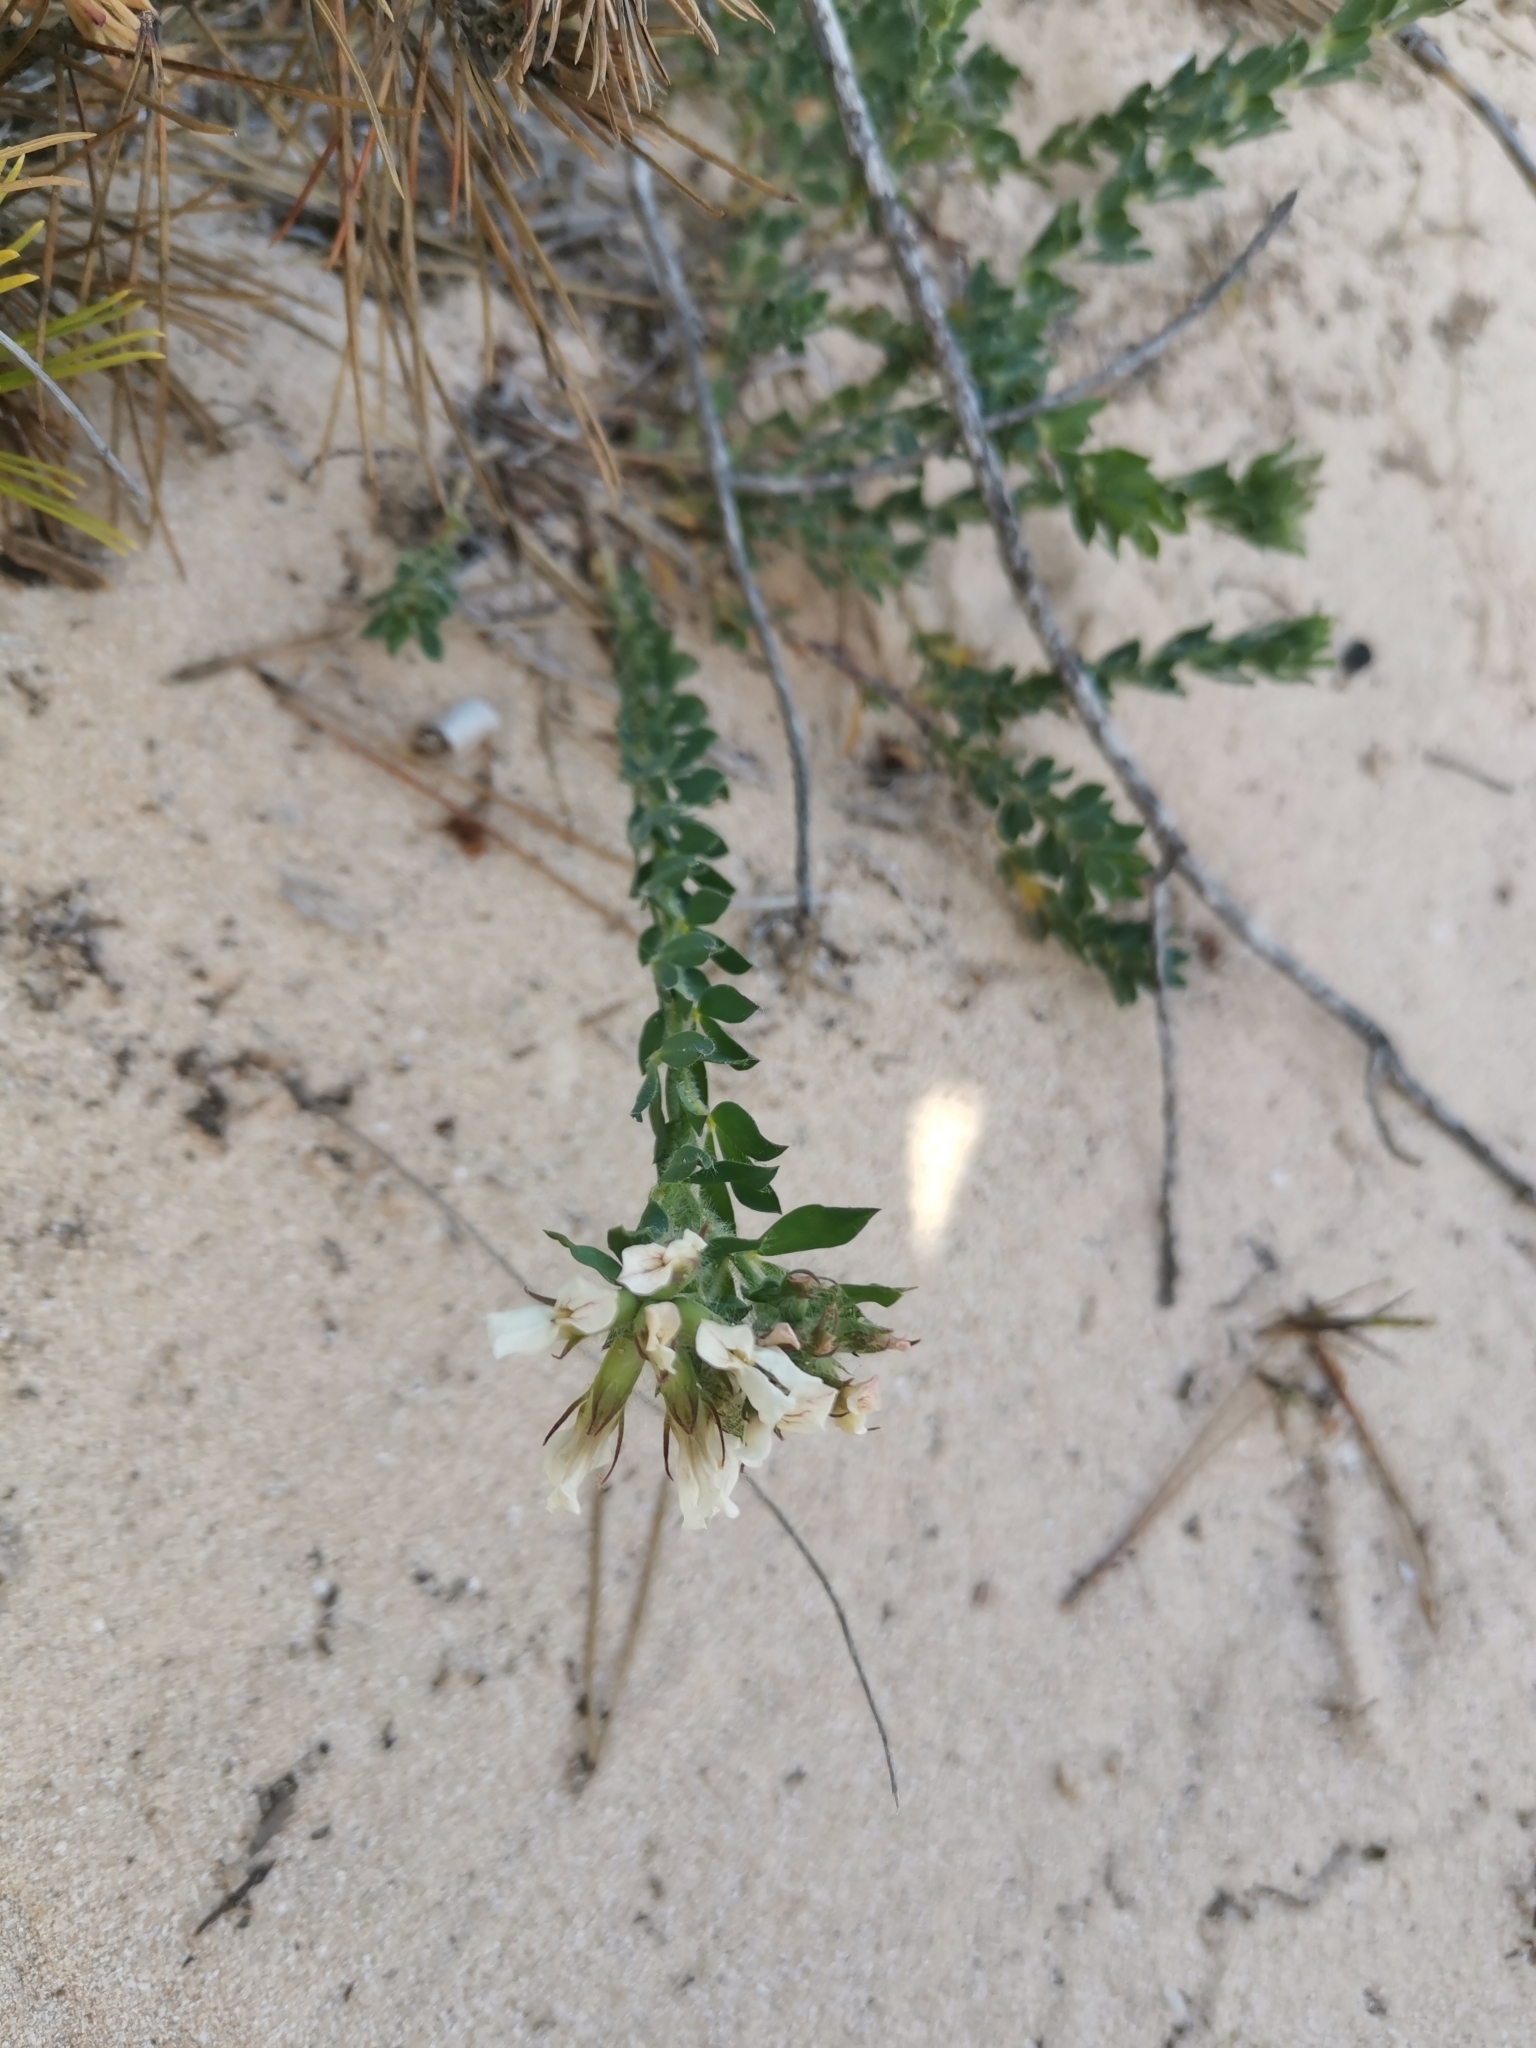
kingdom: Plantae
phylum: Tracheophyta
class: Magnoliopsida
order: Fabales
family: Fabaceae
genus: Lotus
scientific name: Lotus hirsutus
